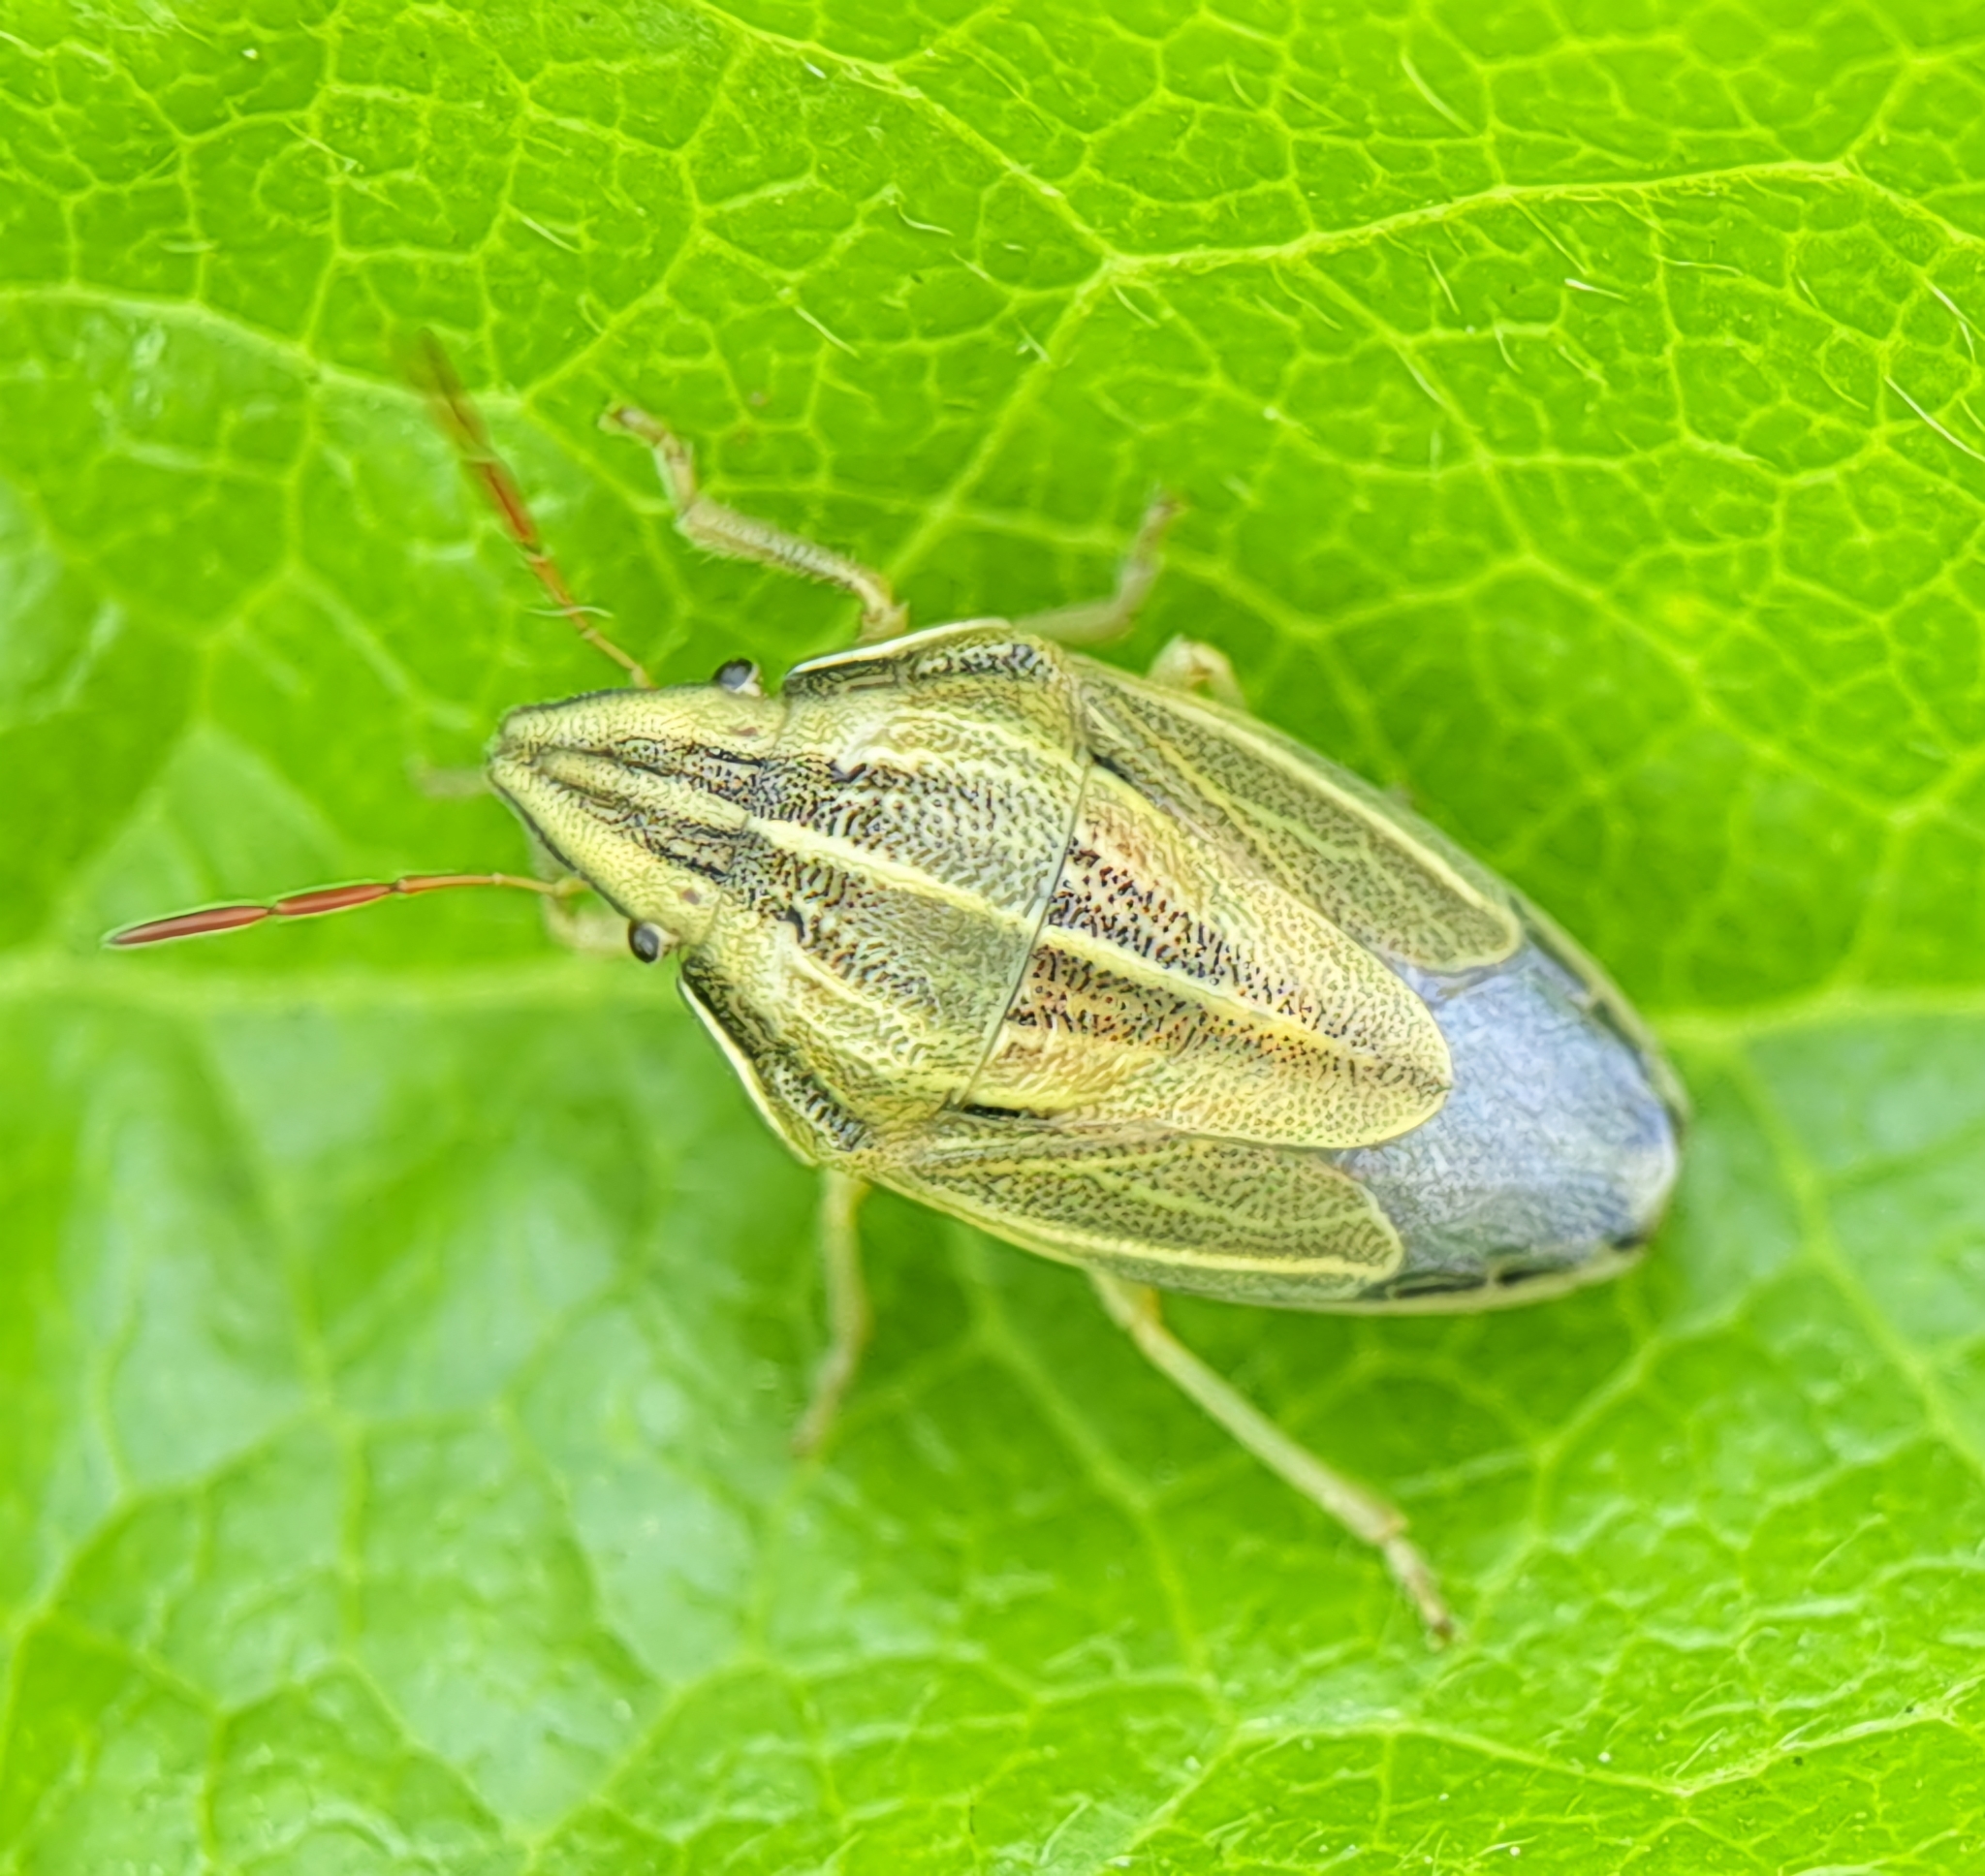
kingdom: Animalia
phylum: Arthropoda
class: Insecta
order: Hemiptera
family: Pentatomidae
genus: Aelia
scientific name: Aelia acuminata
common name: Bishop's mitre
